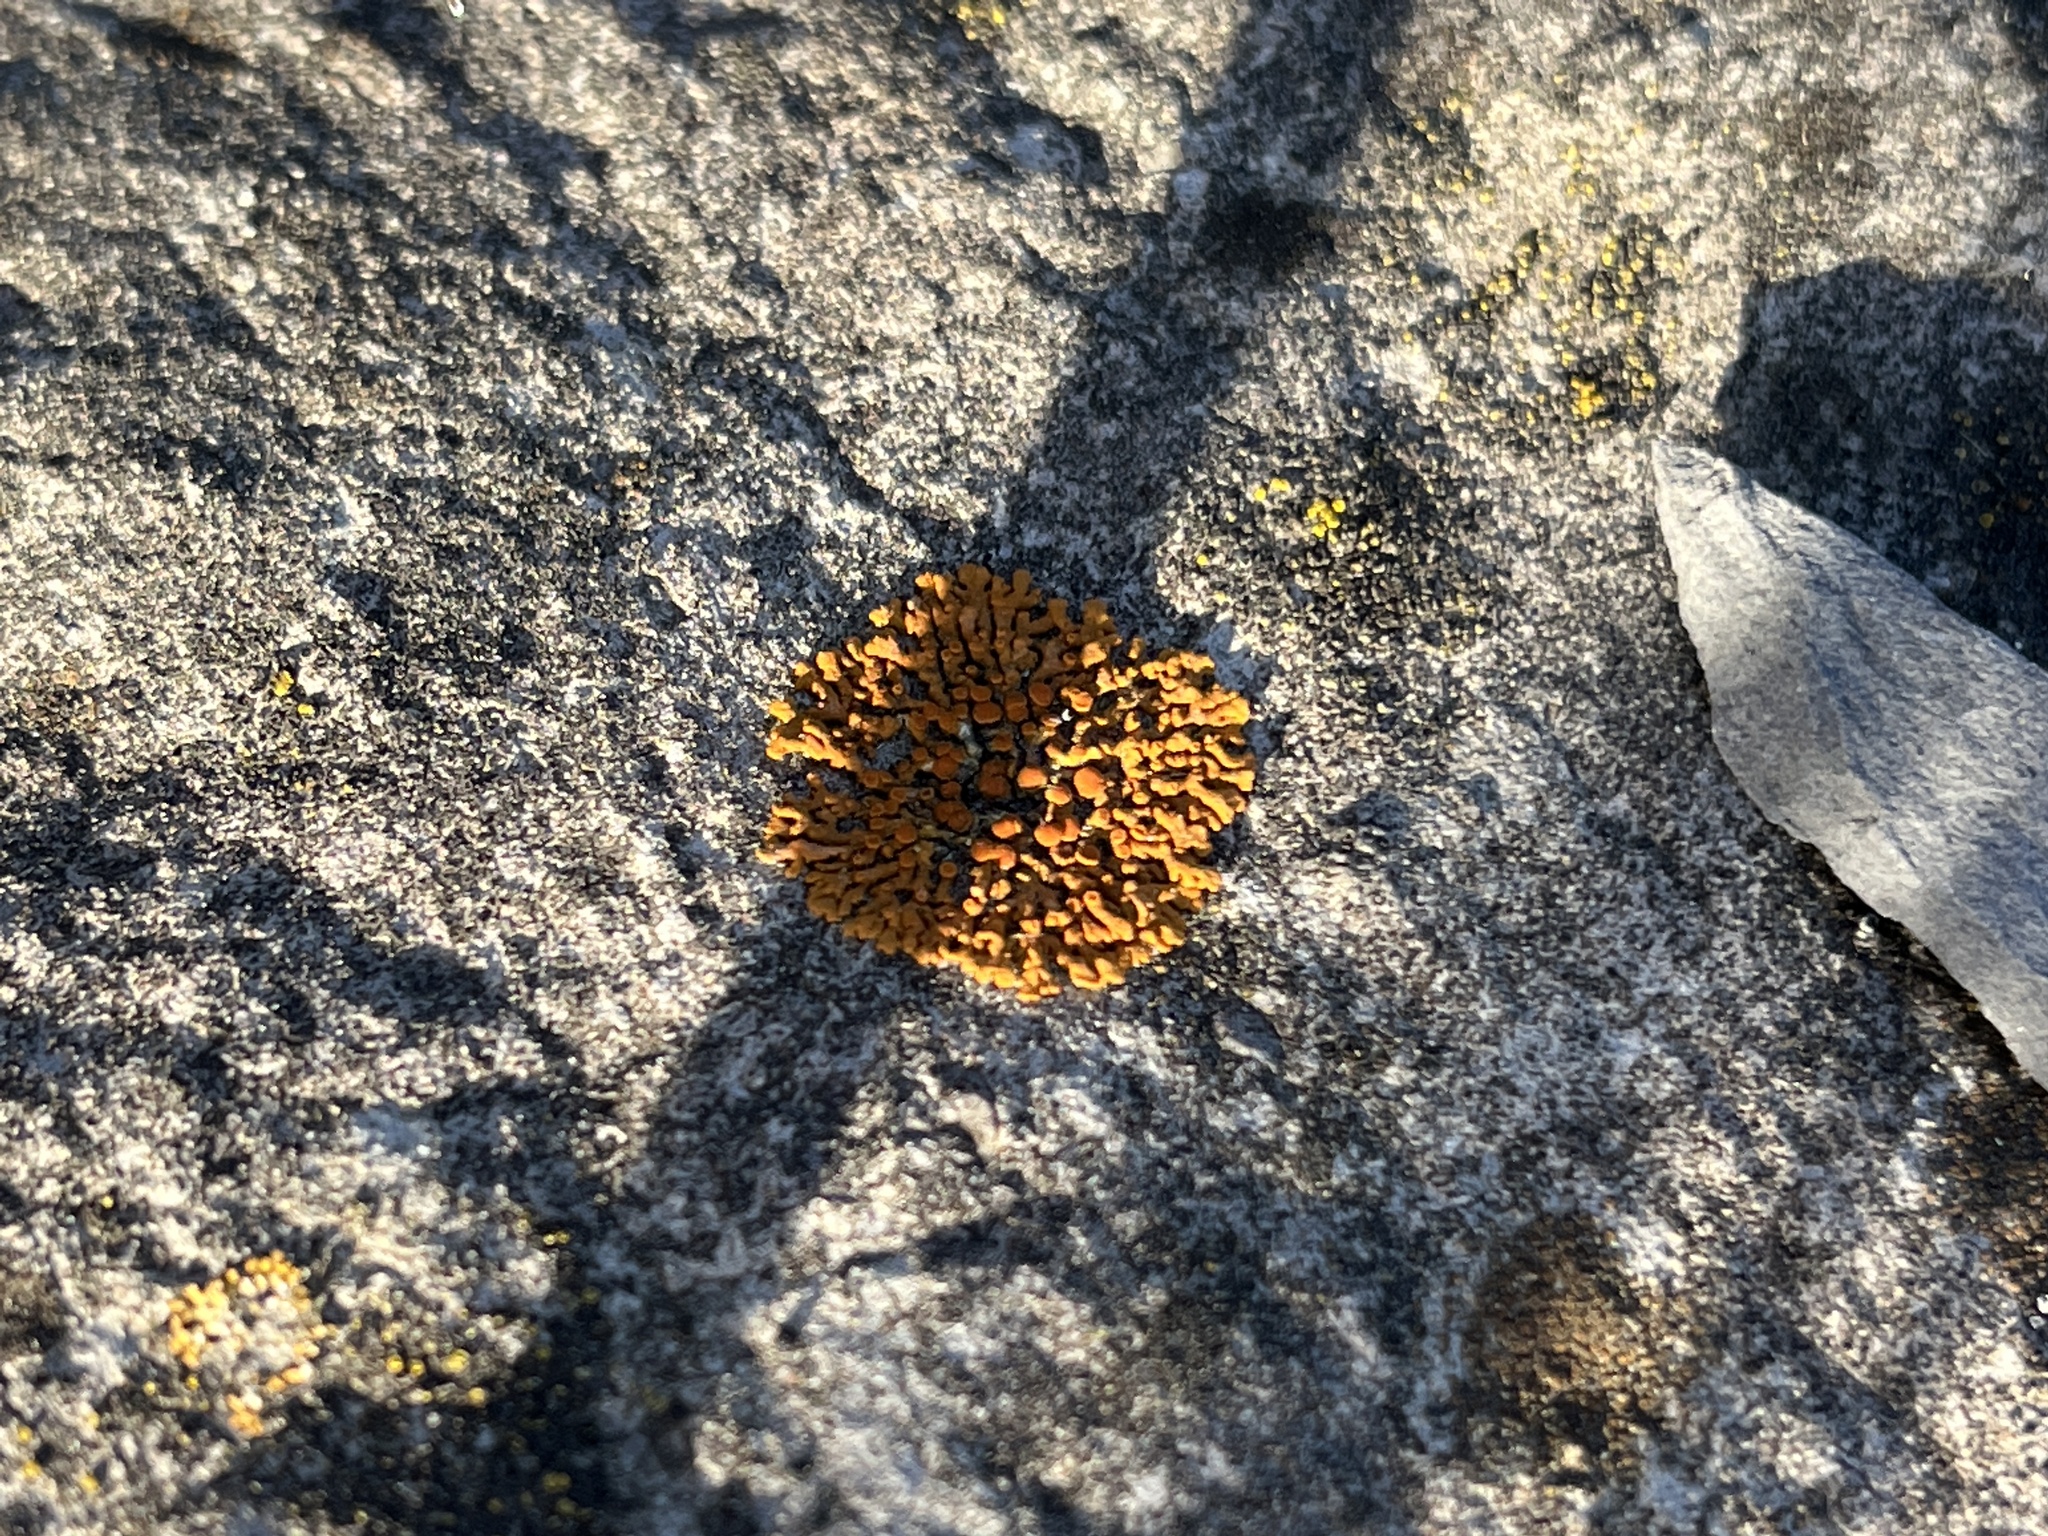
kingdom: Fungi
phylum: Ascomycota
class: Lecanoromycetes
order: Teloschistales
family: Teloschistaceae
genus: Xanthoria
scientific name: Xanthoria elegans
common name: Elegant sunburst lichen
